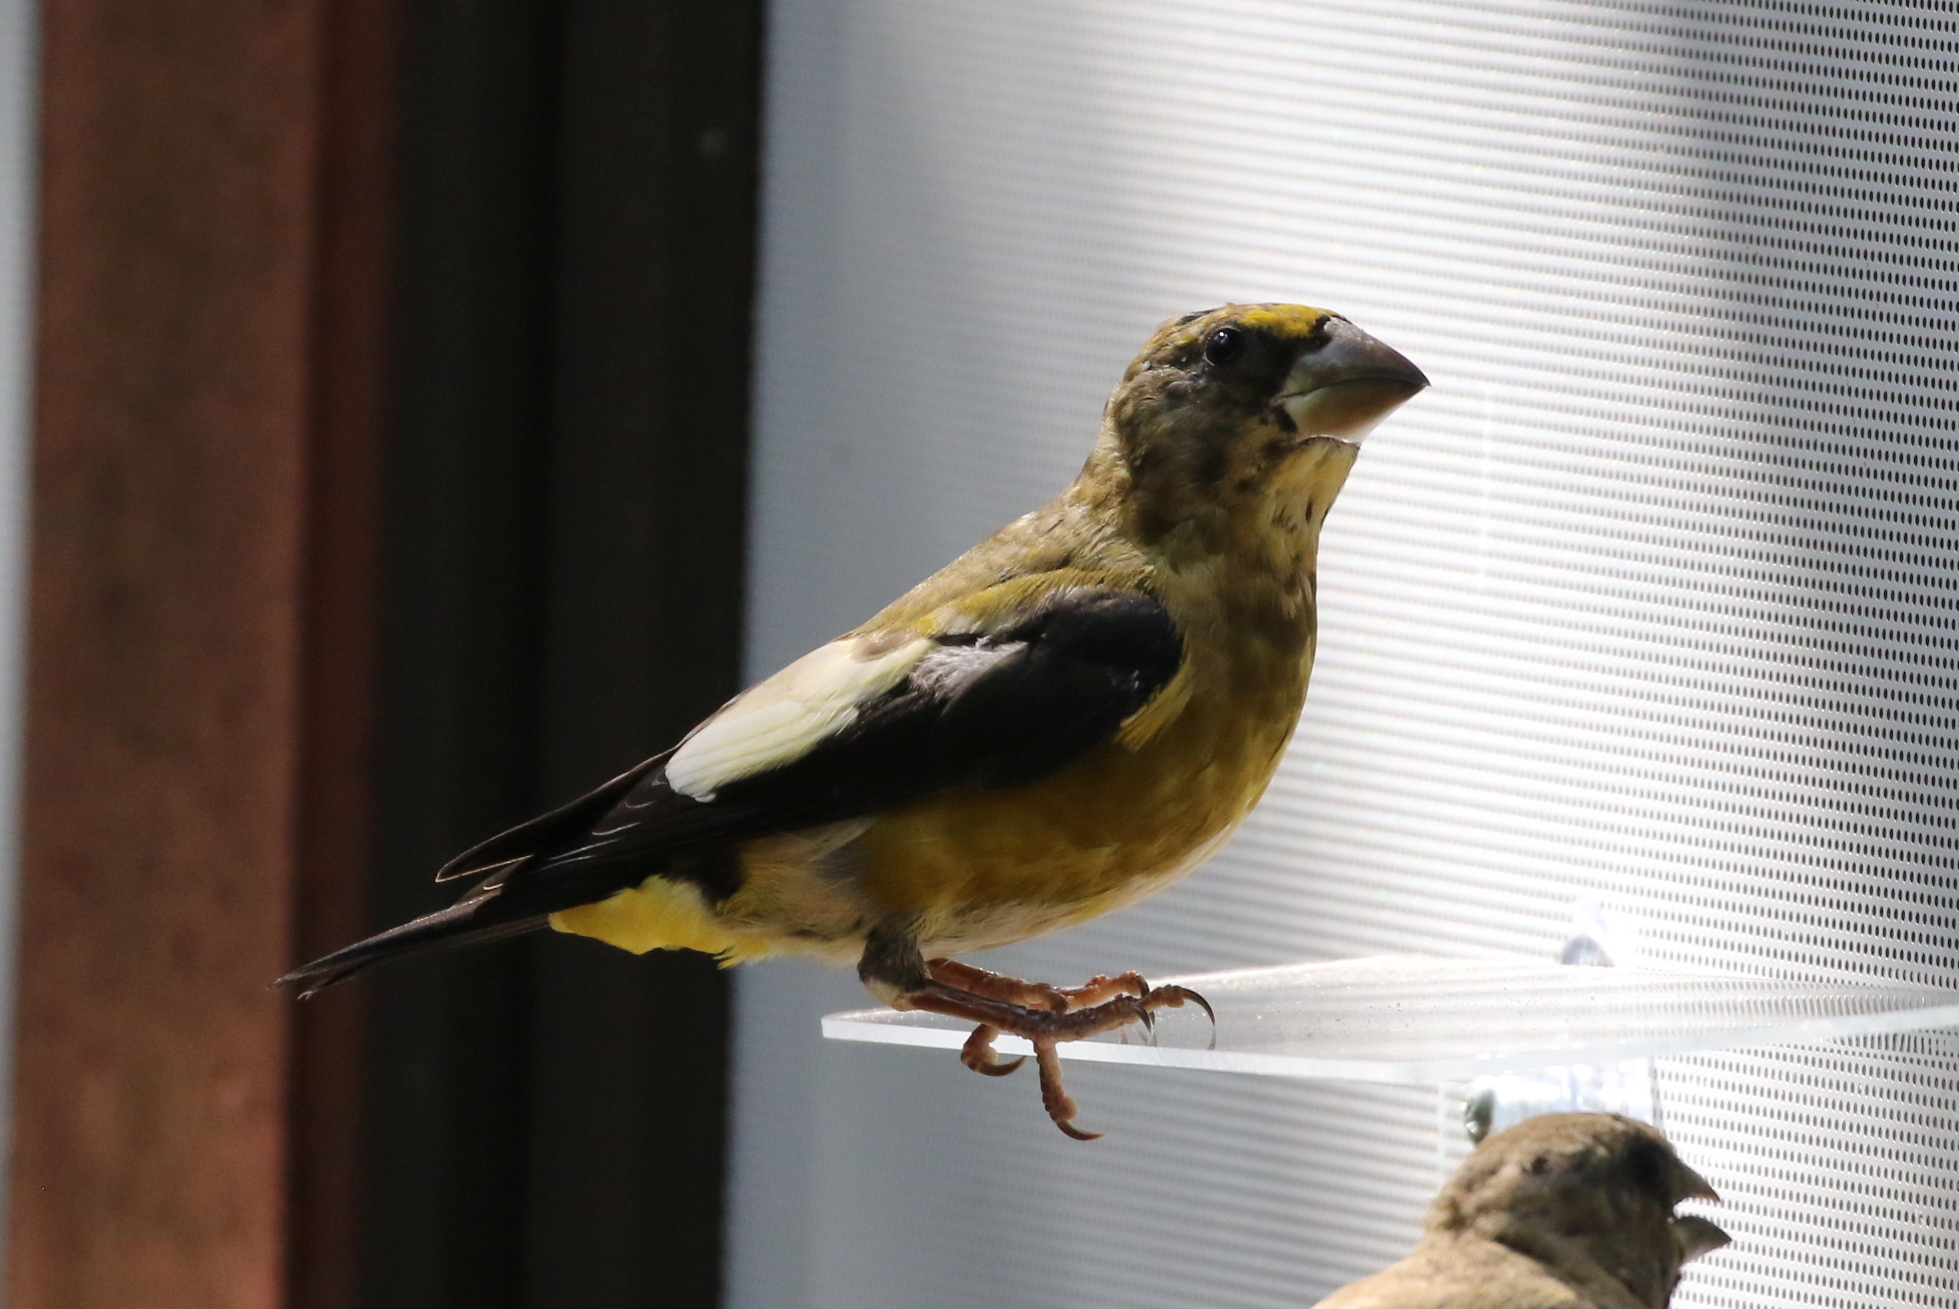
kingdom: Animalia
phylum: Chordata
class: Aves
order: Passeriformes
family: Fringillidae
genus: Hesperiphona
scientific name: Hesperiphona vespertina
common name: Evening grosbeak
